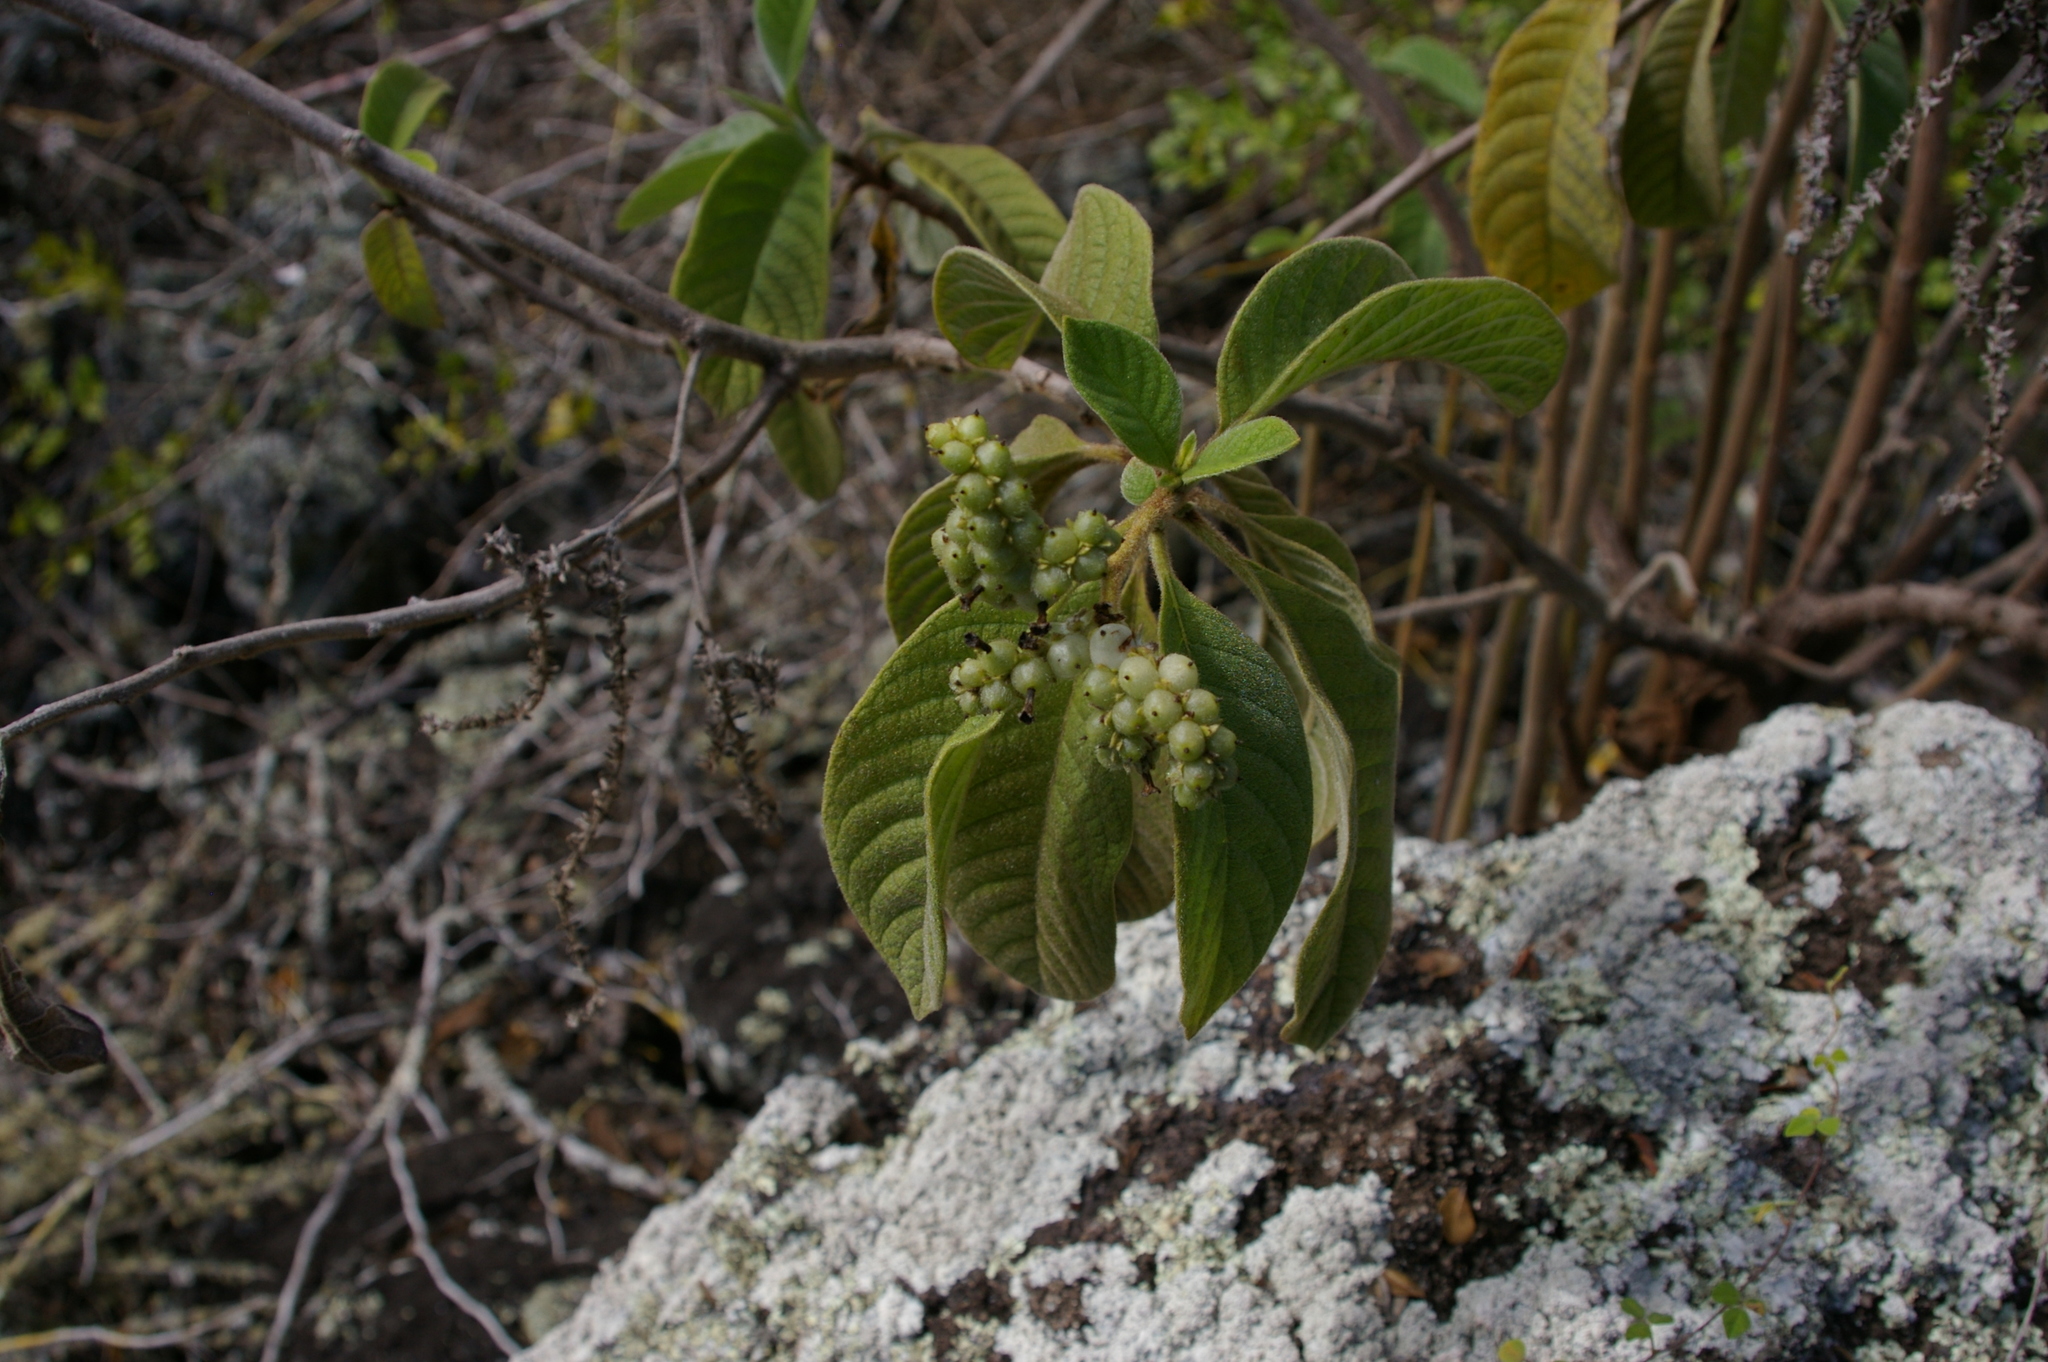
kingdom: Plantae
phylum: Tracheophyta
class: Magnoliopsida
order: Boraginales
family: Heliotropiaceae
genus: Tournefortia
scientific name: Tournefortia pubescens
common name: White-haired tournefortia
